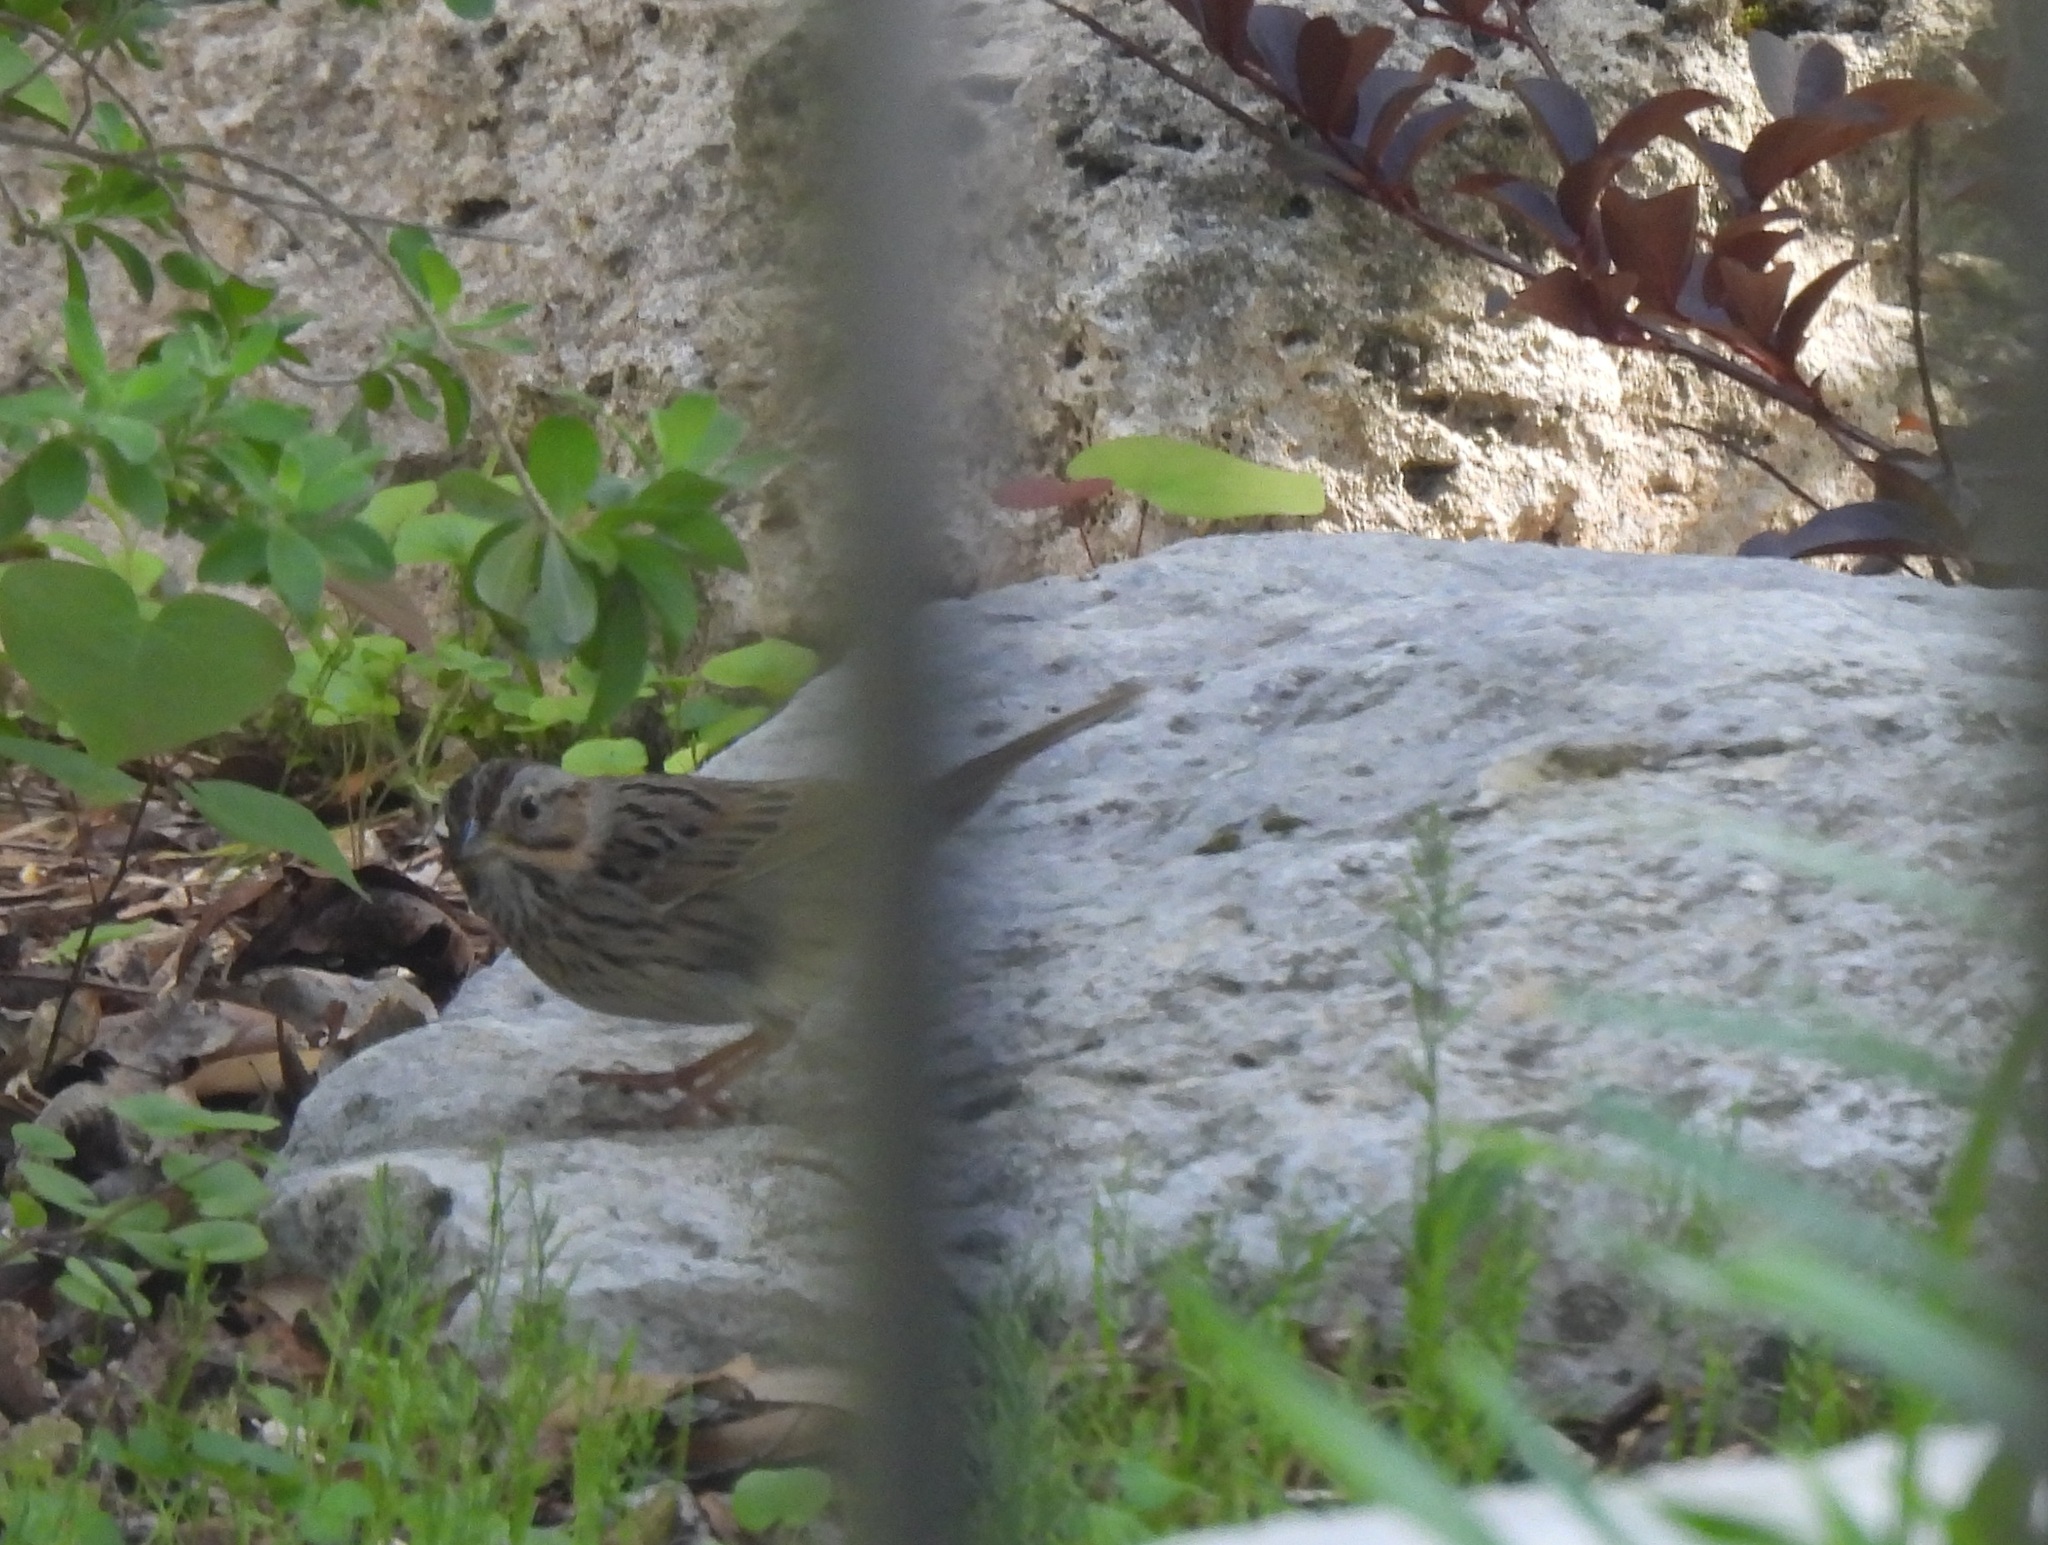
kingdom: Animalia
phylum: Chordata
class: Aves
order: Passeriformes
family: Passerellidae
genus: Melospiza
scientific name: Melospiza lincolnii
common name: Lincoln's sparrow
